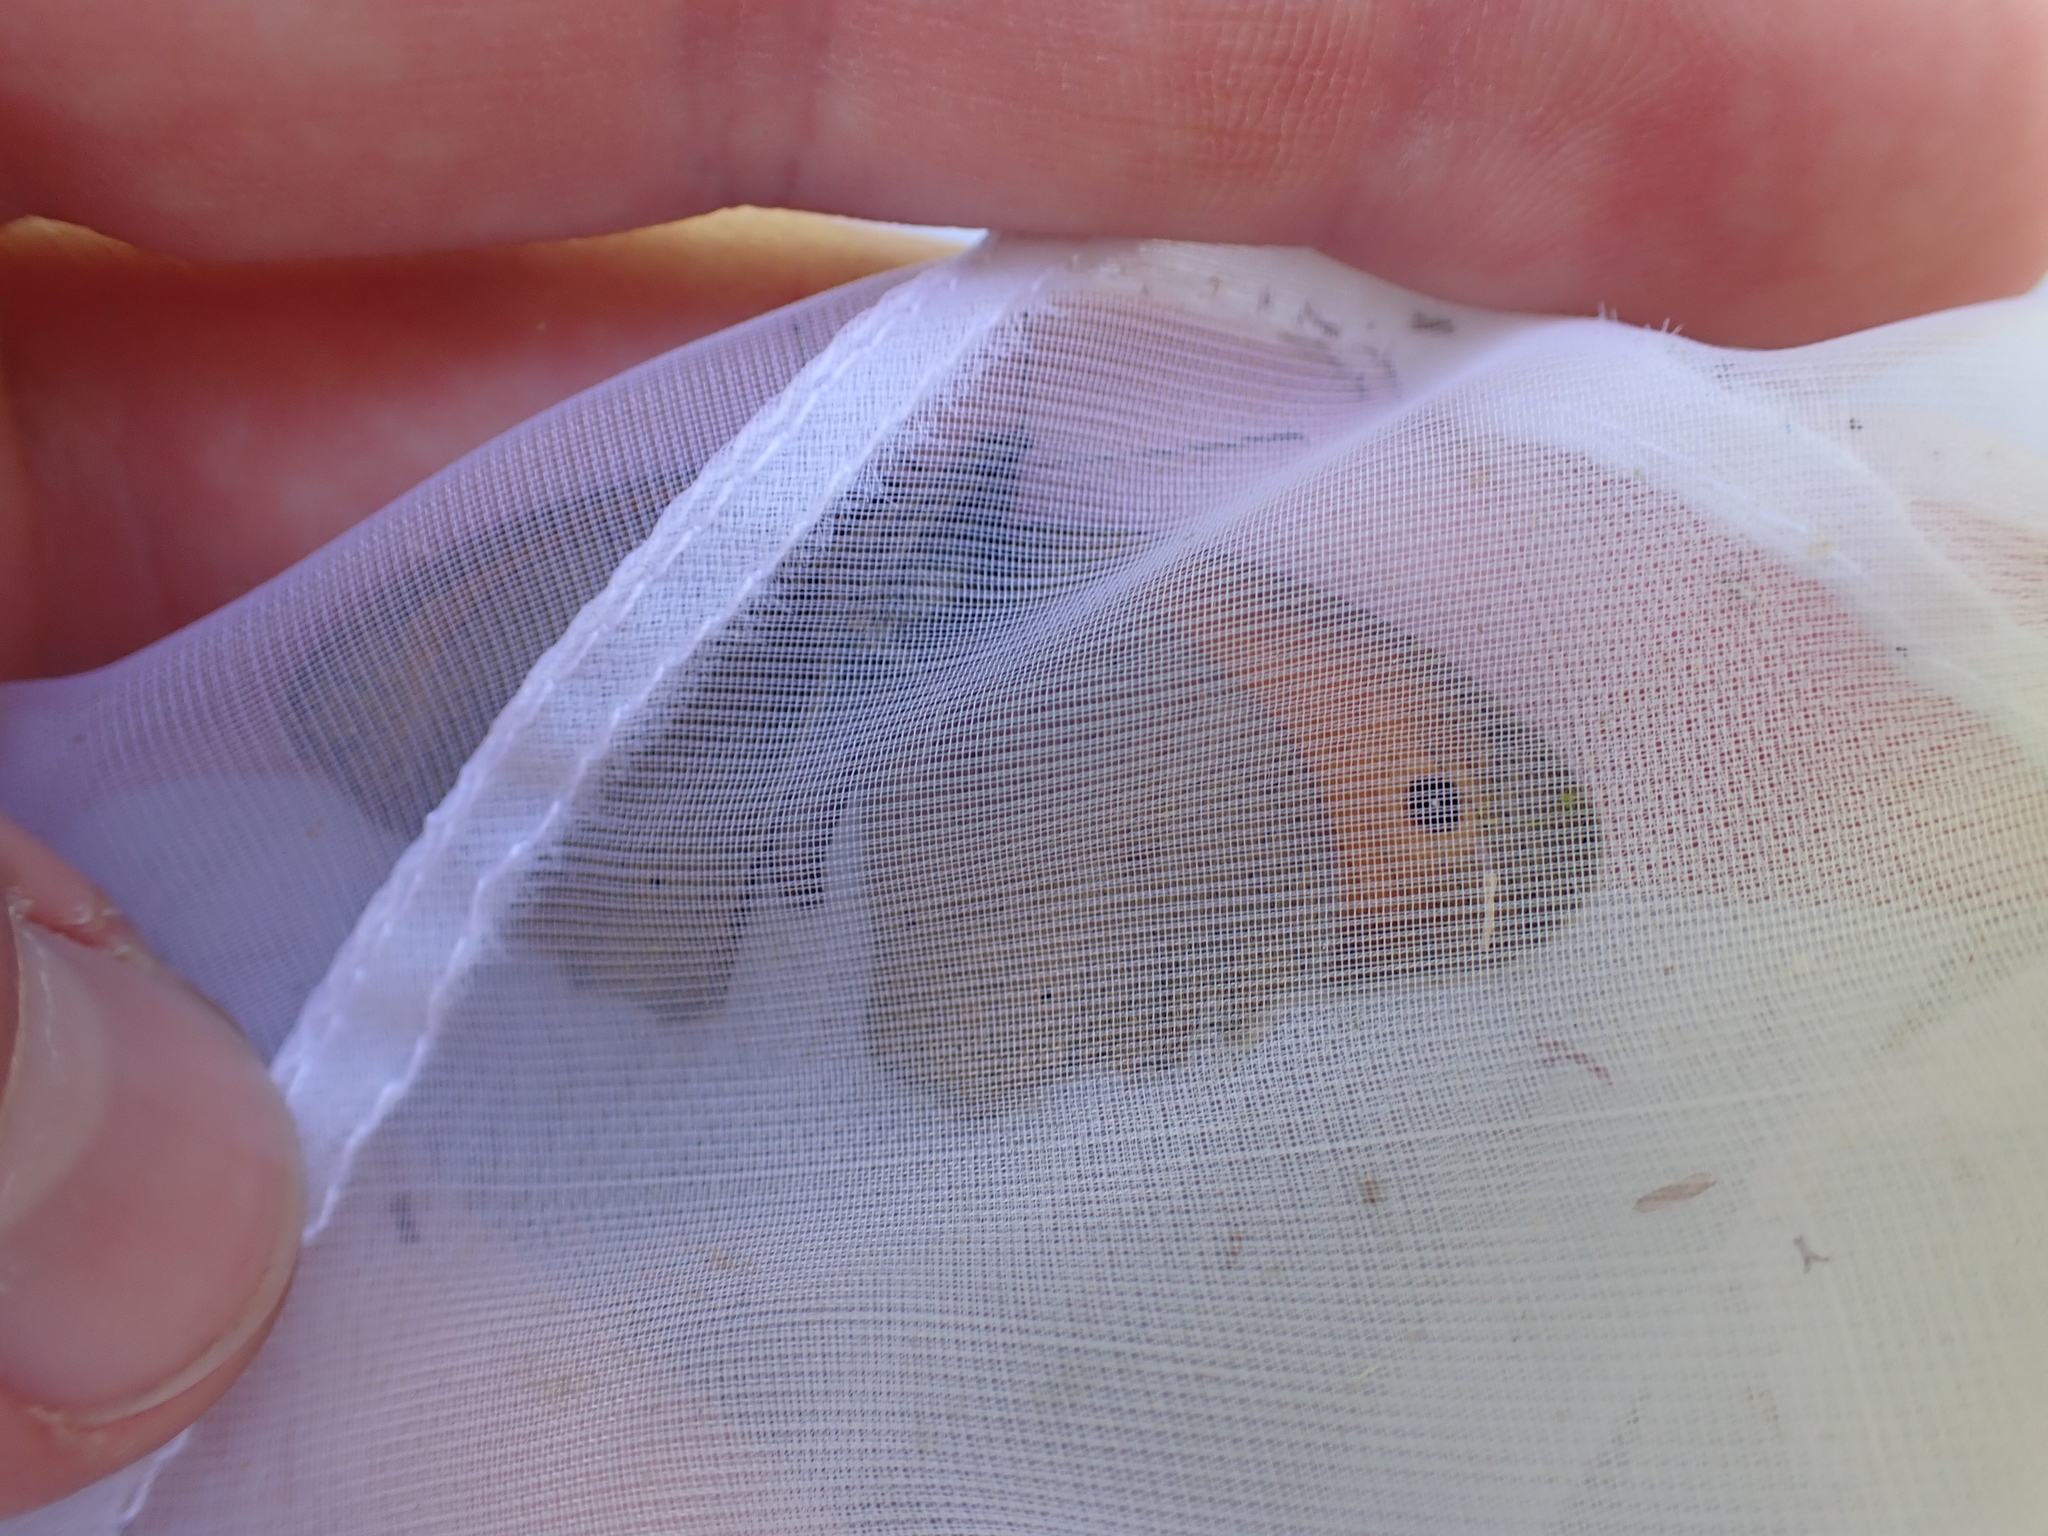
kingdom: Animalia
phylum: Arthropoda
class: Insecta
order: Lepidoptera
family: Nymphalidae
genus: Coenonympha
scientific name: Coenonympha pamphilus
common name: Small heath
